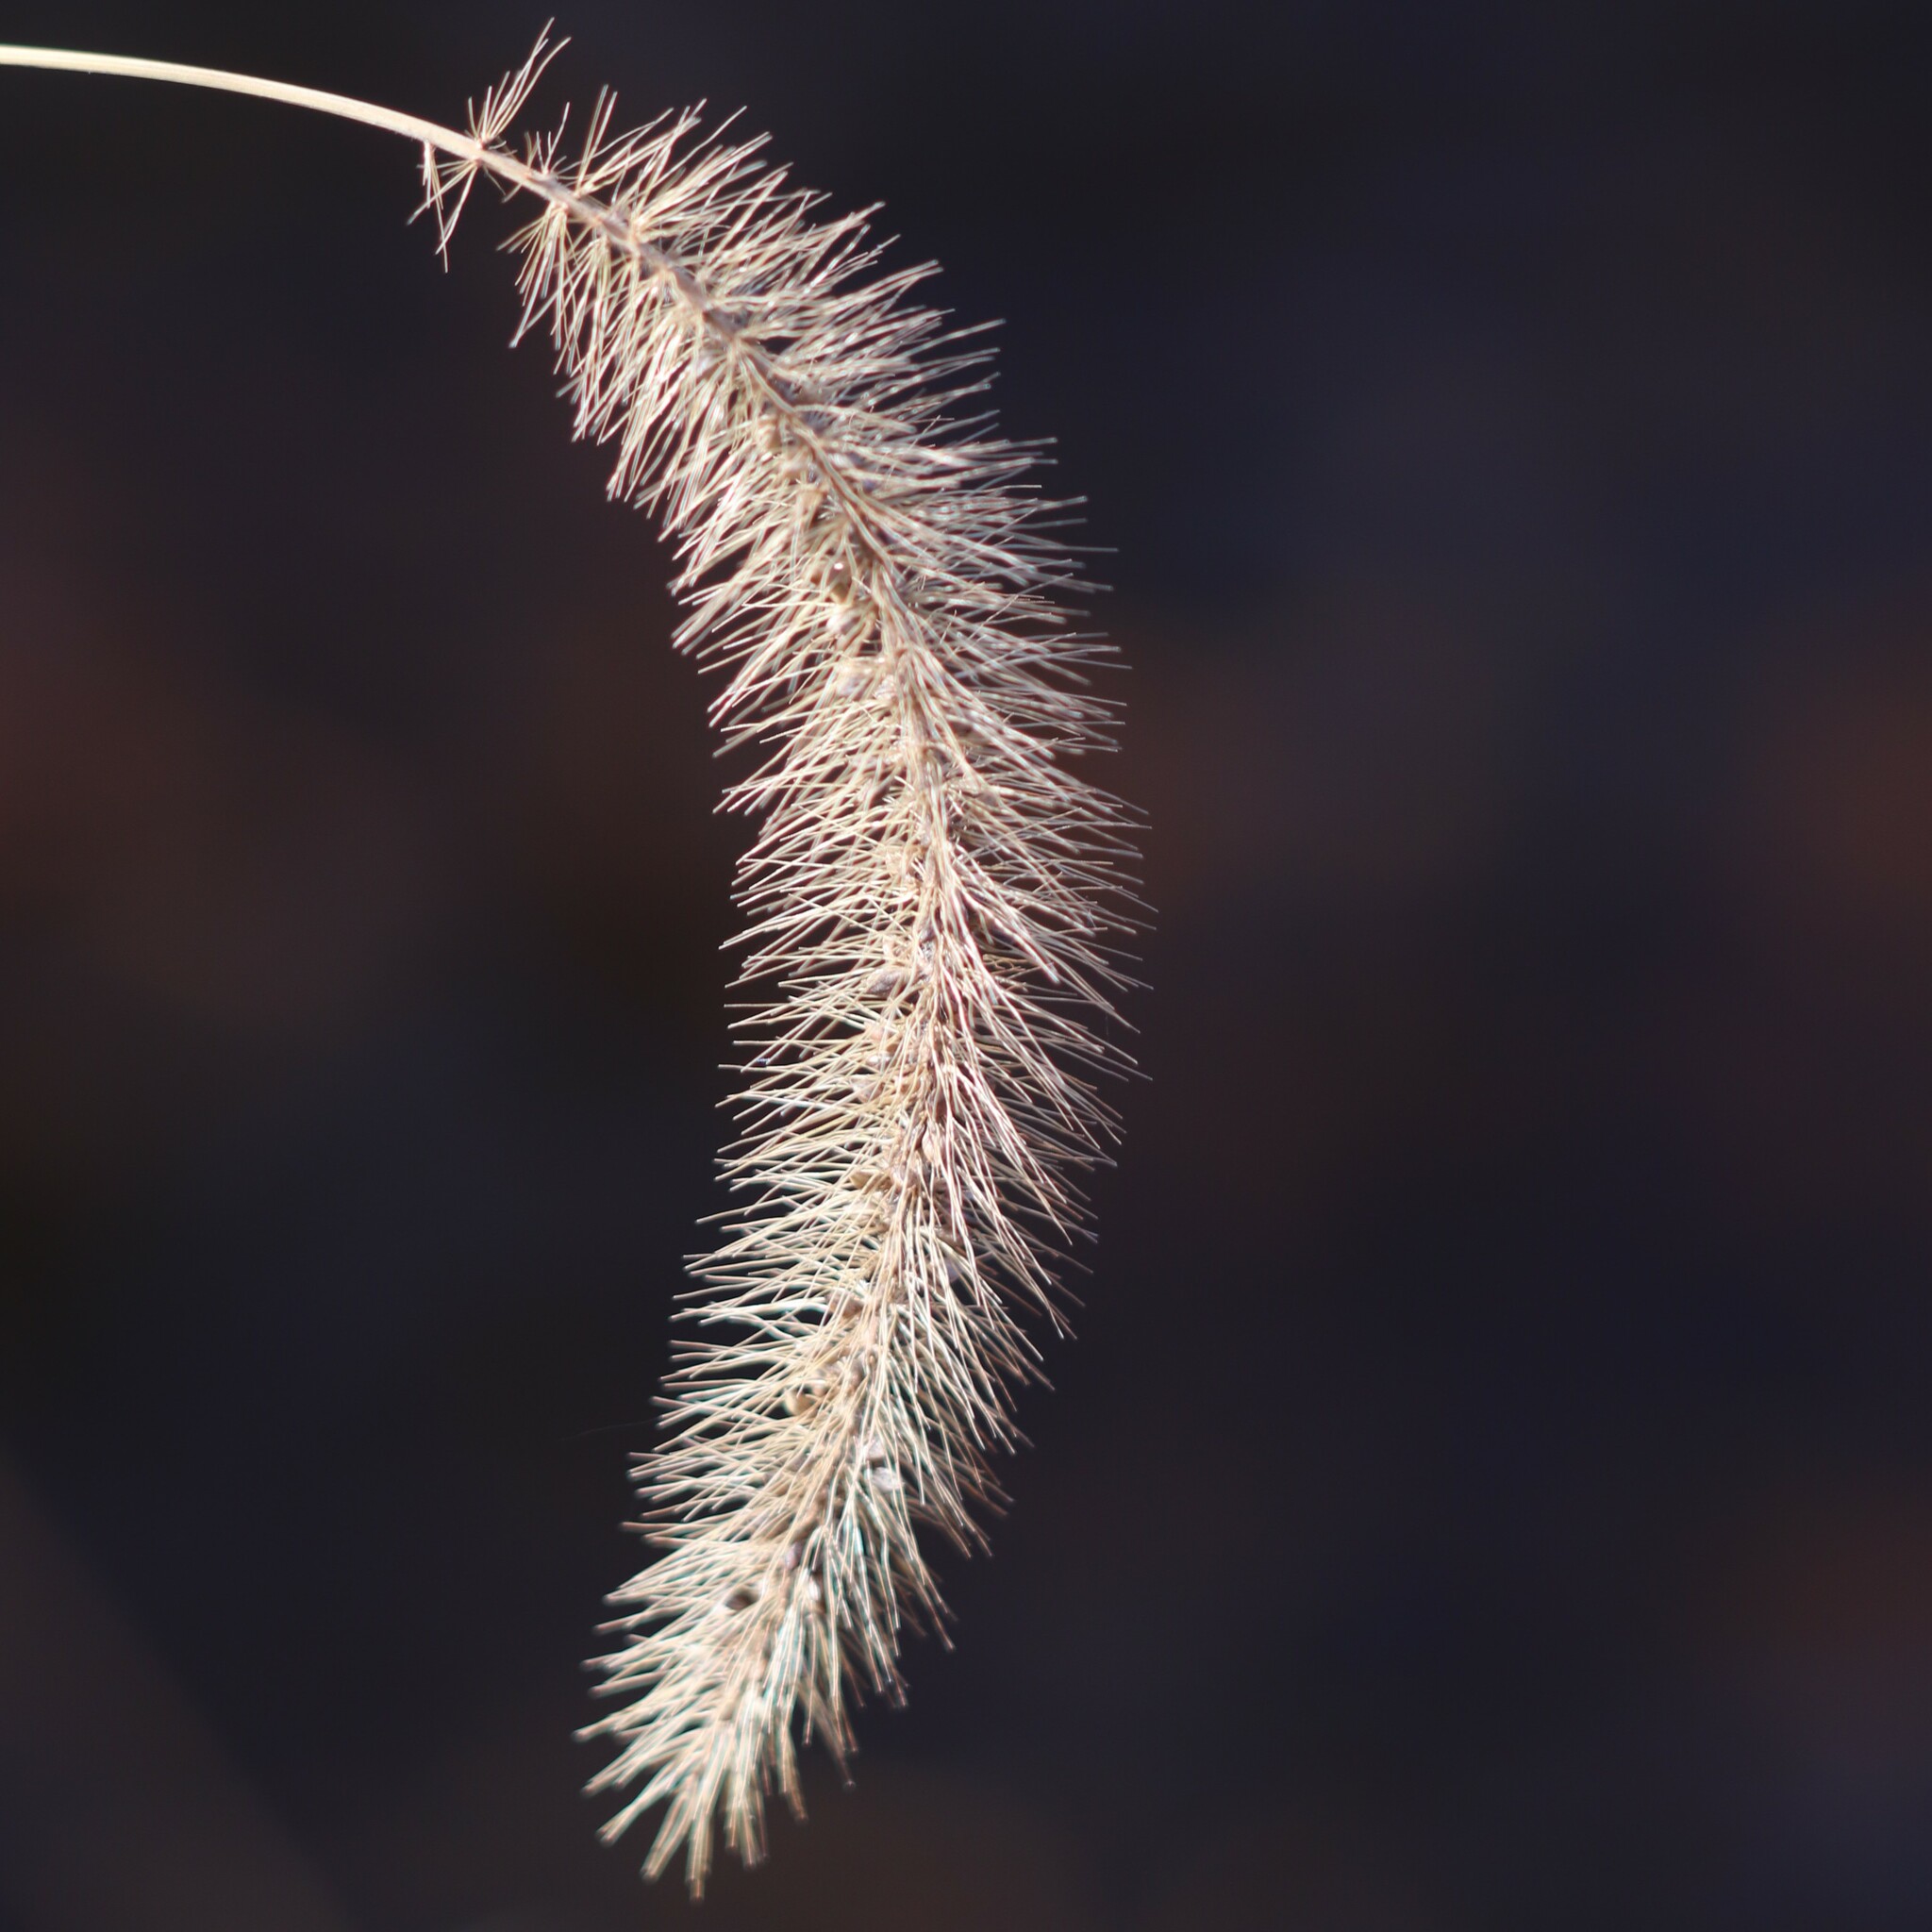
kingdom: Plantae
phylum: Tracheophyta
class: Liliopsida
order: Poales
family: Poaceae
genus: Setaria
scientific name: Setaria faberi
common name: Nodding bristle-grass
